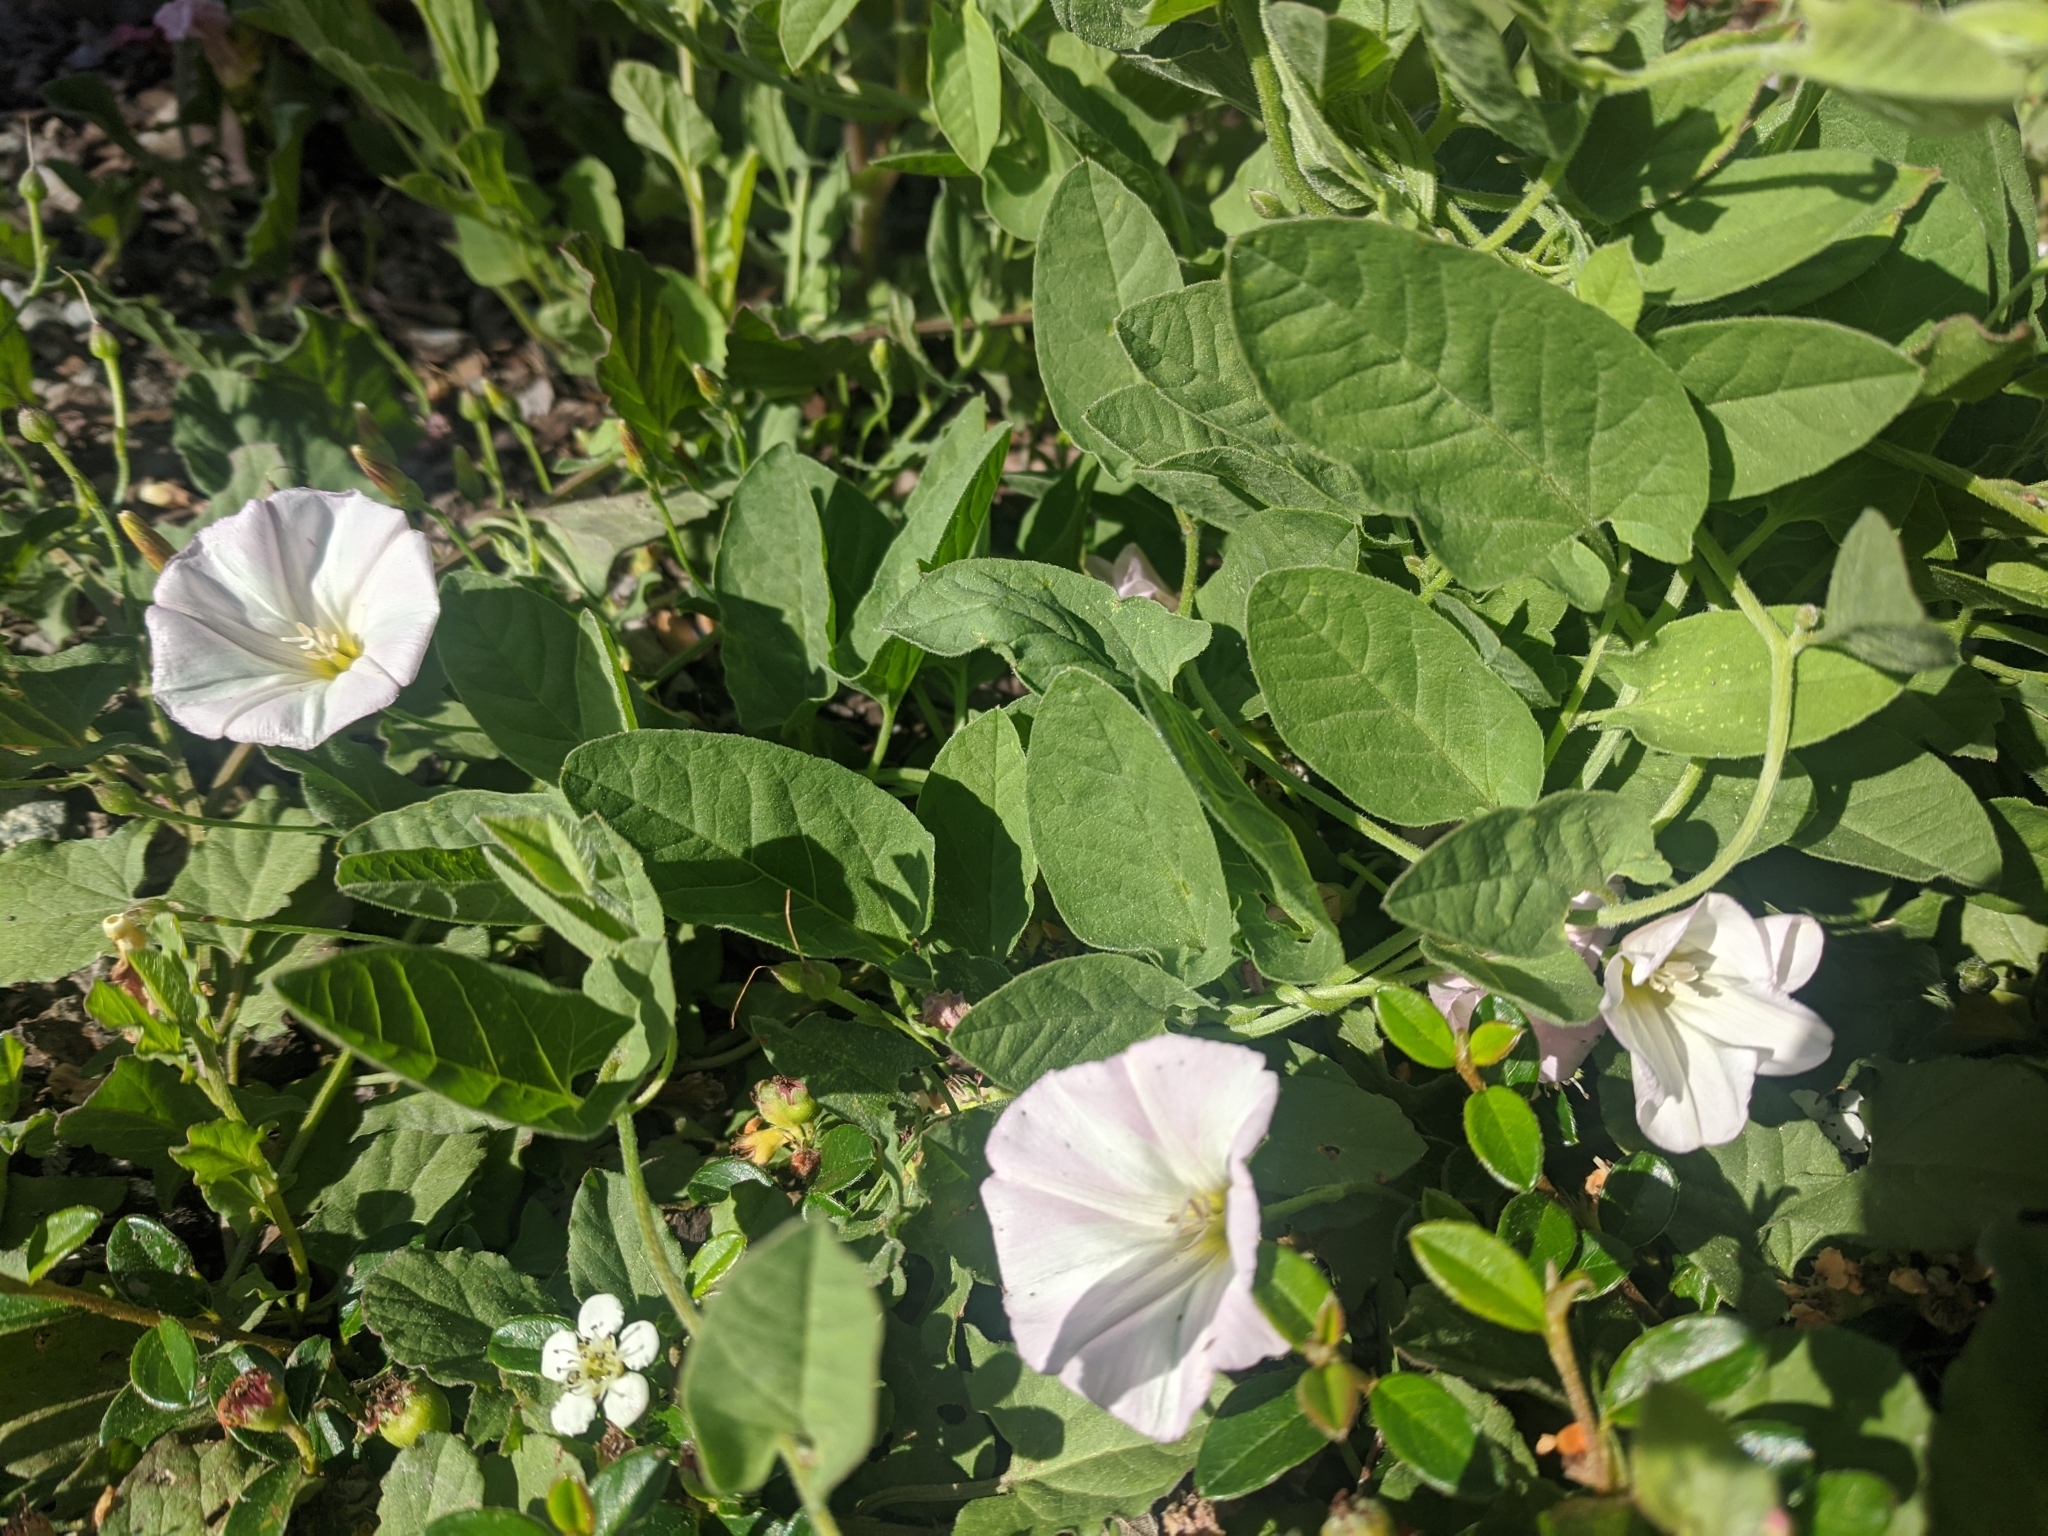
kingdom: Plantae
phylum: Tracheophyta
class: Magnoliopsida
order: Solanales
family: Convolvulaceae
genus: Convolvulus
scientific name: Convolvulus arvensis
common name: Field bindweed
